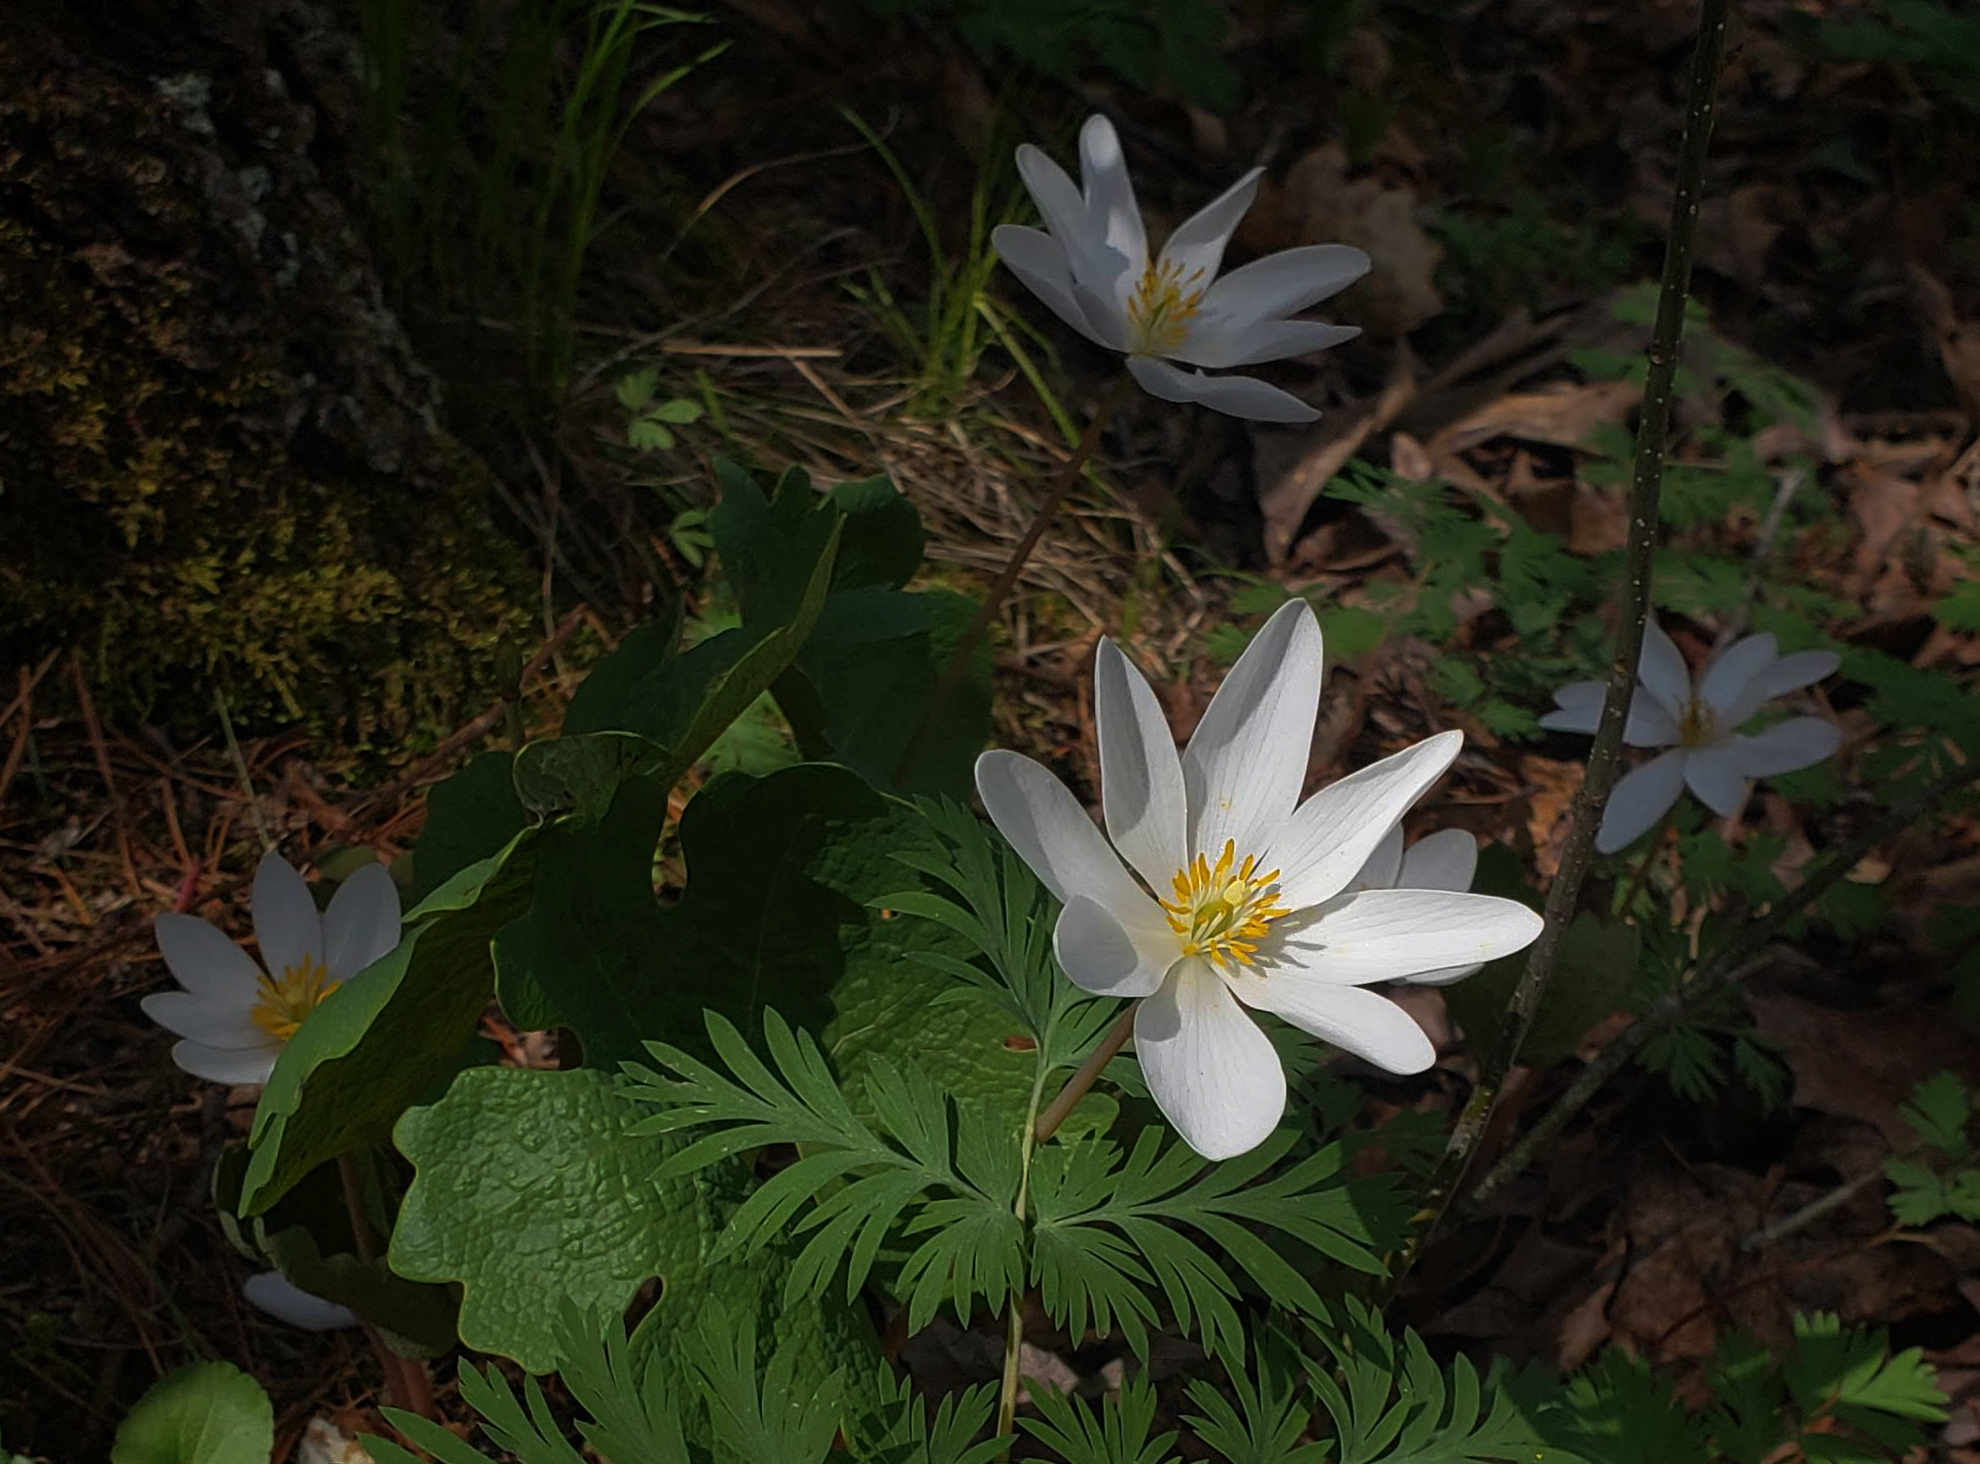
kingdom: Plantae
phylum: Tracheophyta
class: Magnoliopsida
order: Ranunculales
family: Papaveraceae
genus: Sanguinaria
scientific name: Sanguinaria canadensis
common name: Bloodroot
